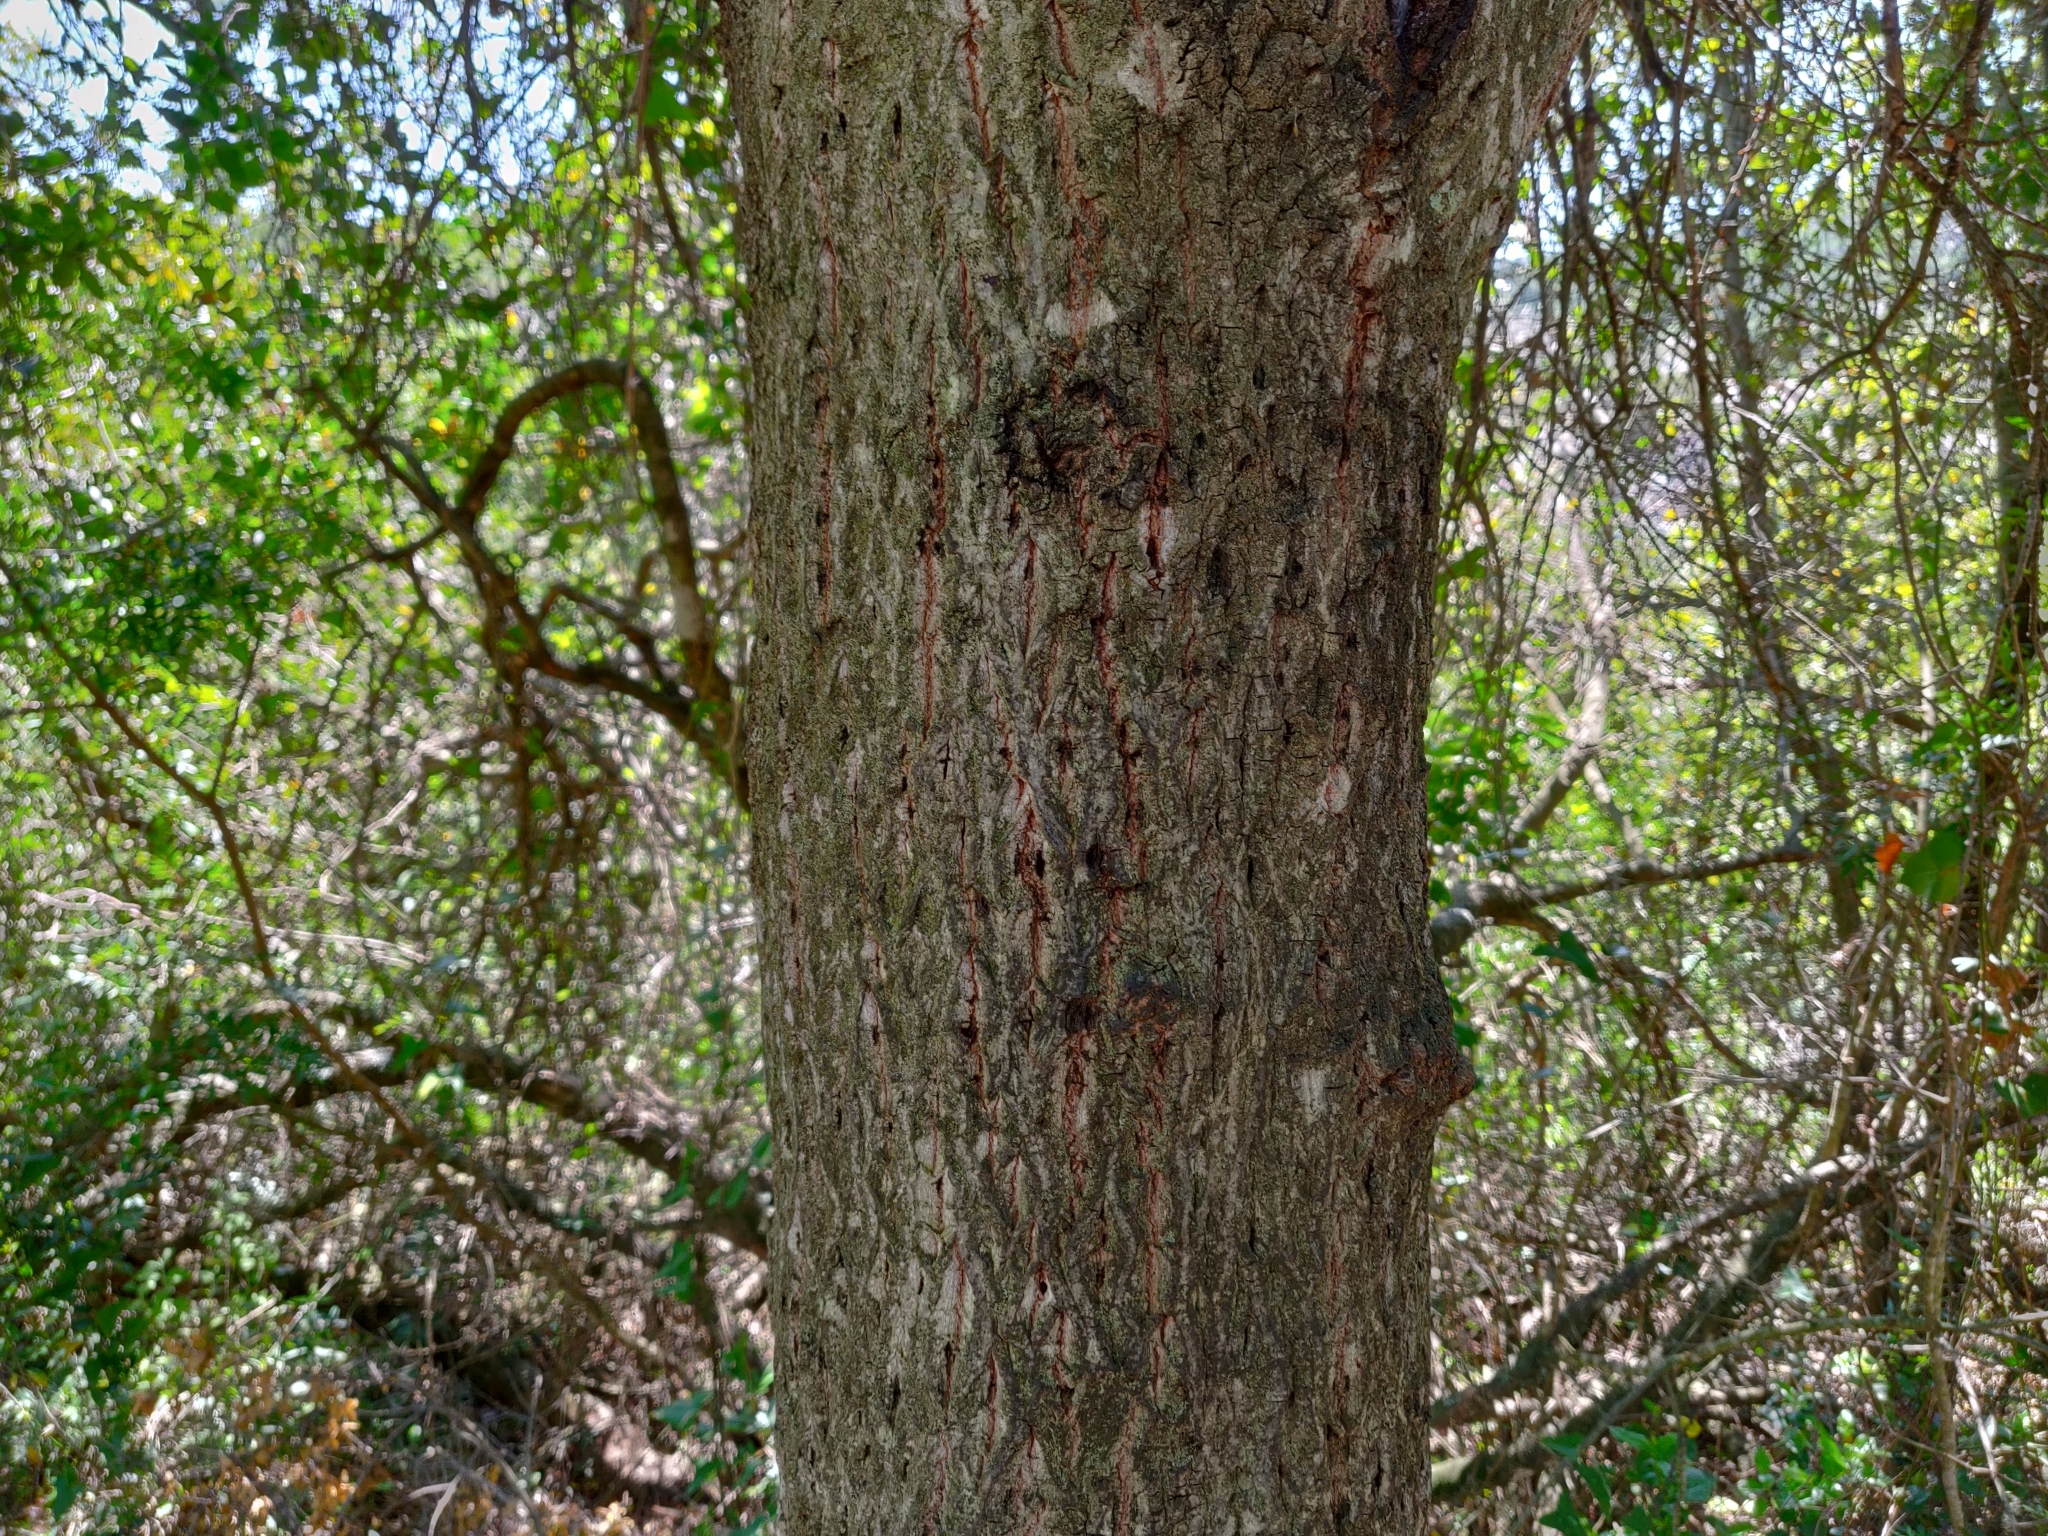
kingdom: Plantae
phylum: Tracheophyta
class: Magnoliopsida
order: Rosales
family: Rhamnaceae
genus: Rhamnus
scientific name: Rhamnus alaternus
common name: Mediterranean buckthorn
